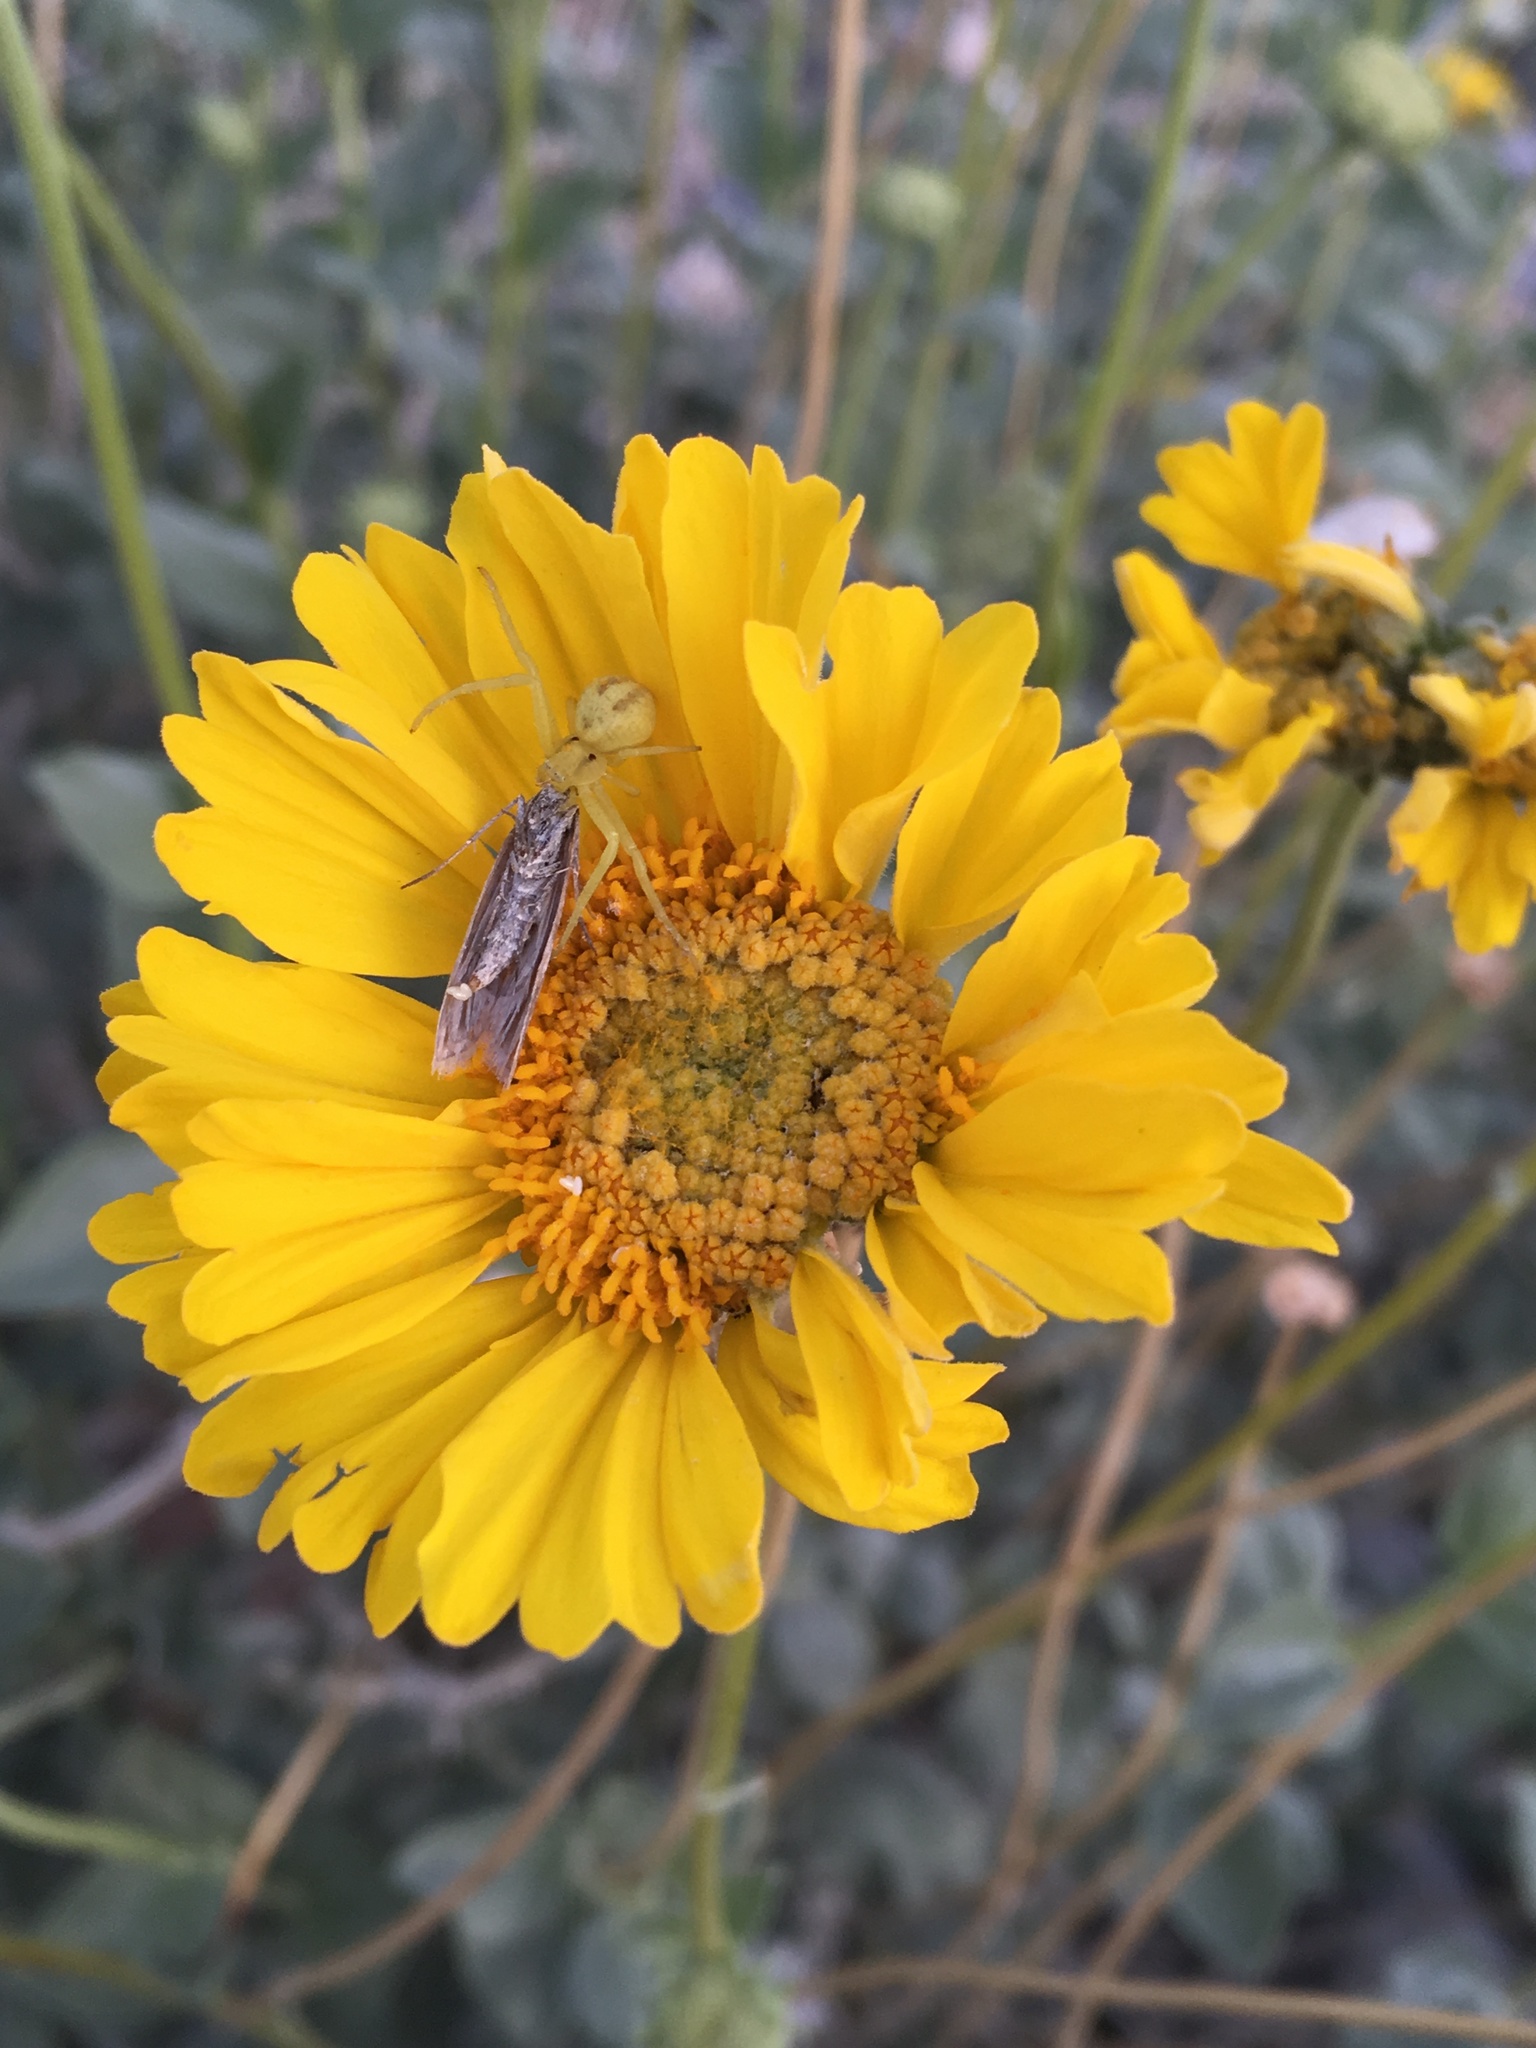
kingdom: Plantae
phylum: Tracheophyta
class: Magnoliopsida
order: Asterales
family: Asteraceae
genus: Encelia
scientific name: Encelia actoni
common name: Acton encelia
